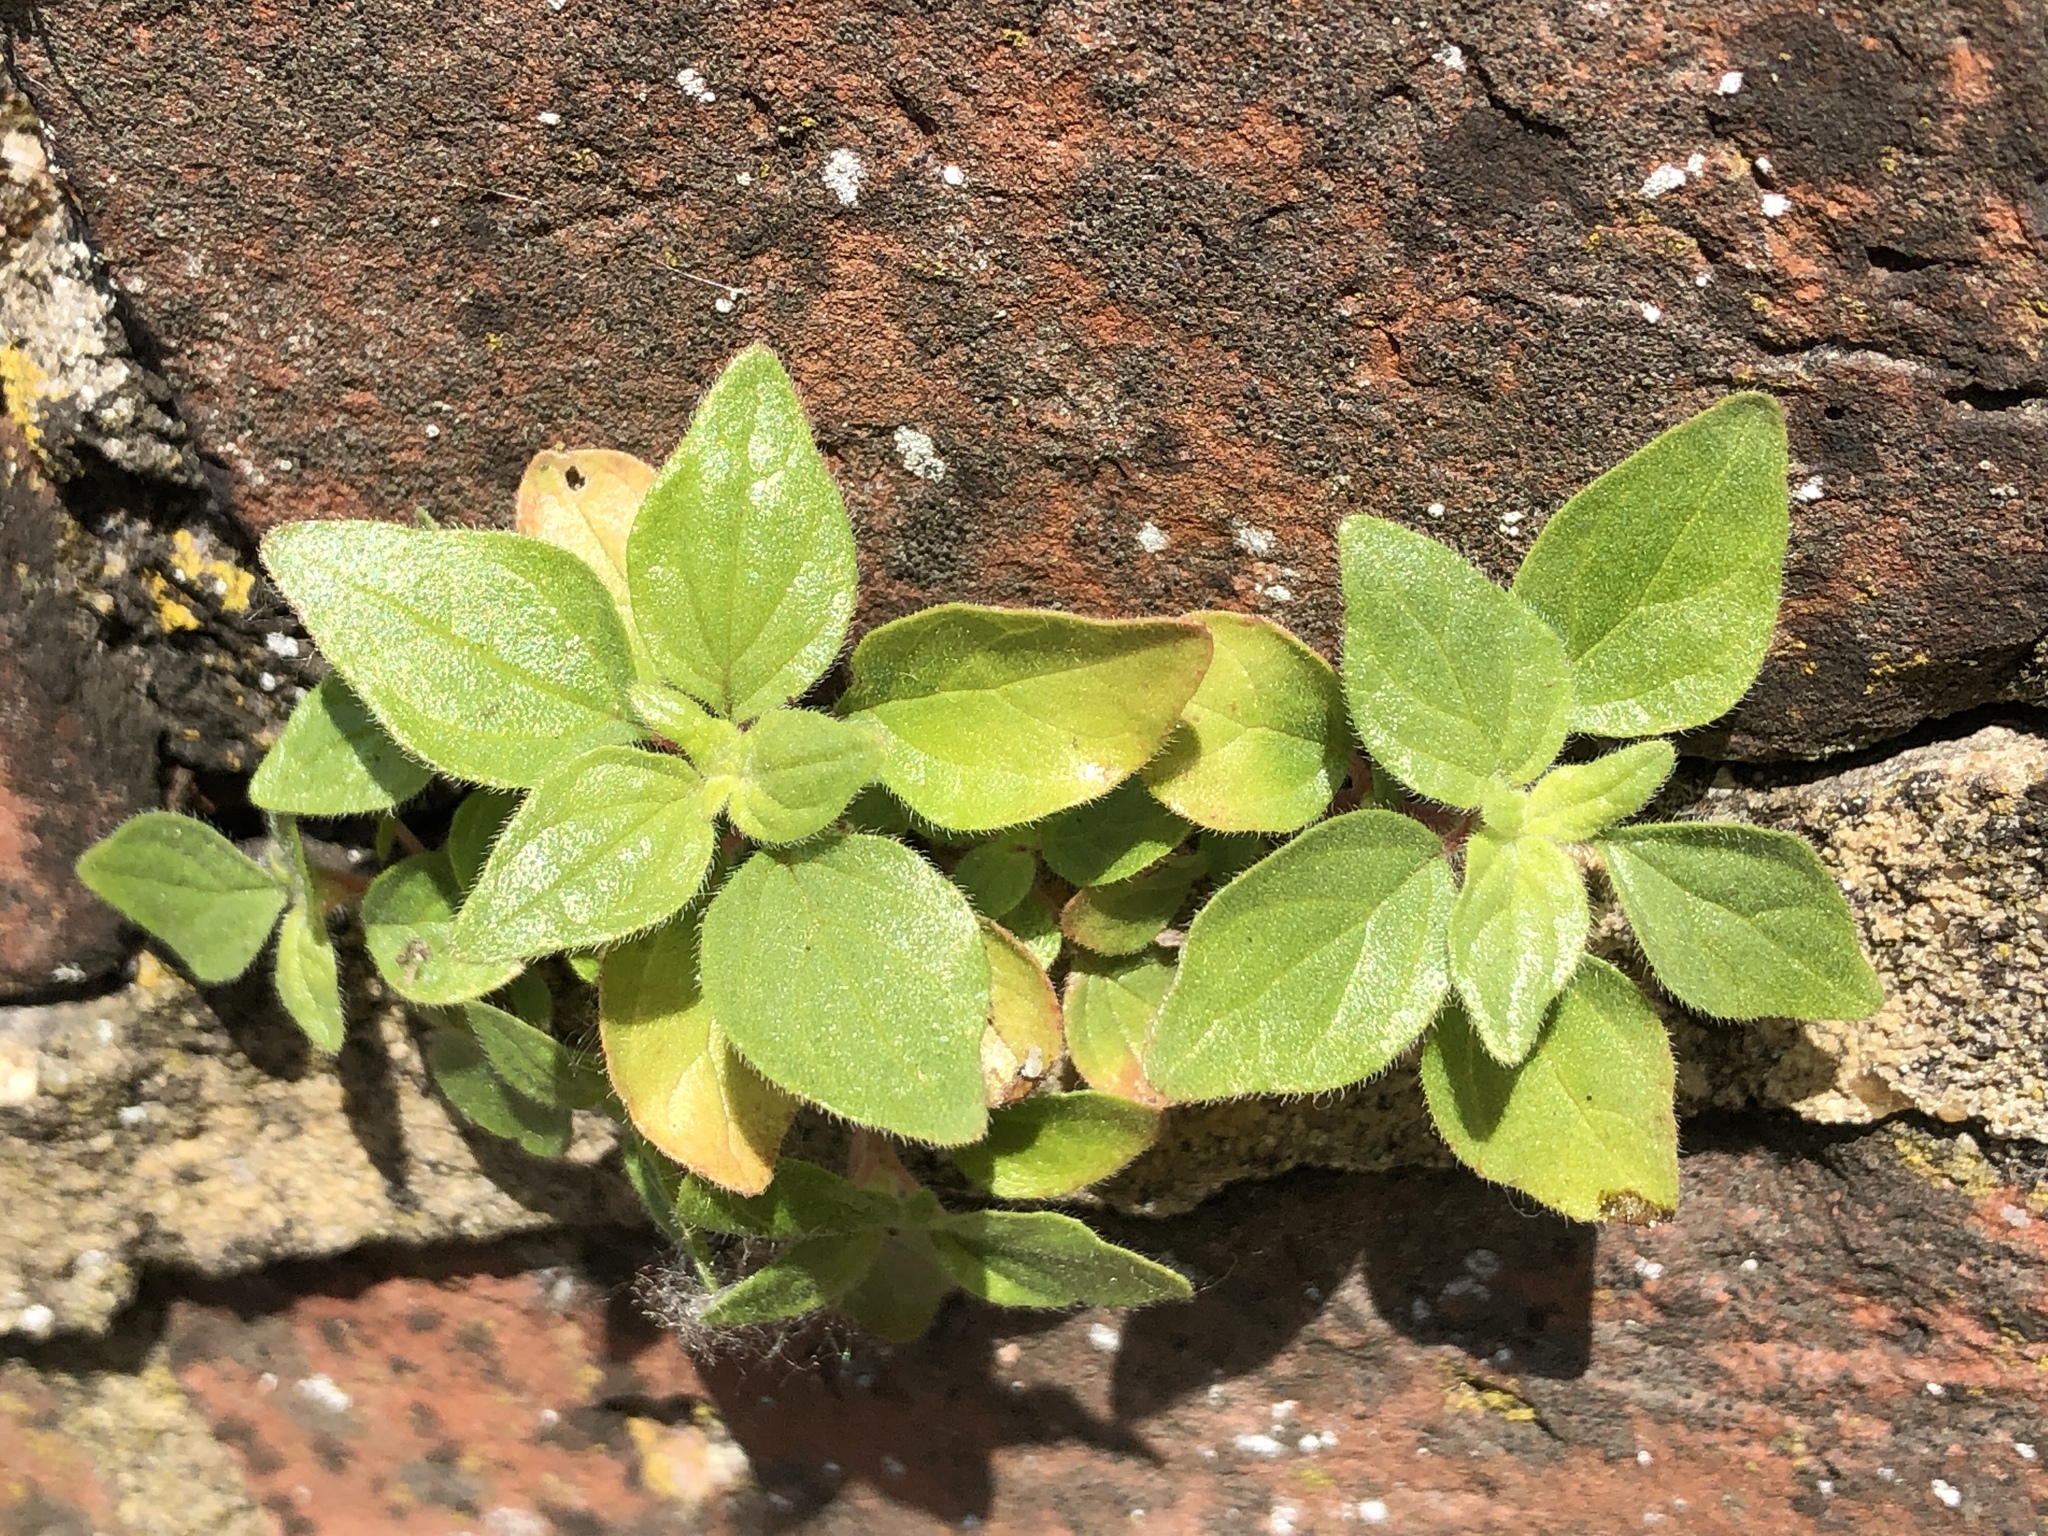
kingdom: Plantae
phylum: Tracheophyta
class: Magnoliopsida
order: Rosales
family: Urticaceae
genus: Parietaria
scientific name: Parietaria judaica
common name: Pellitory-of-the-wall
